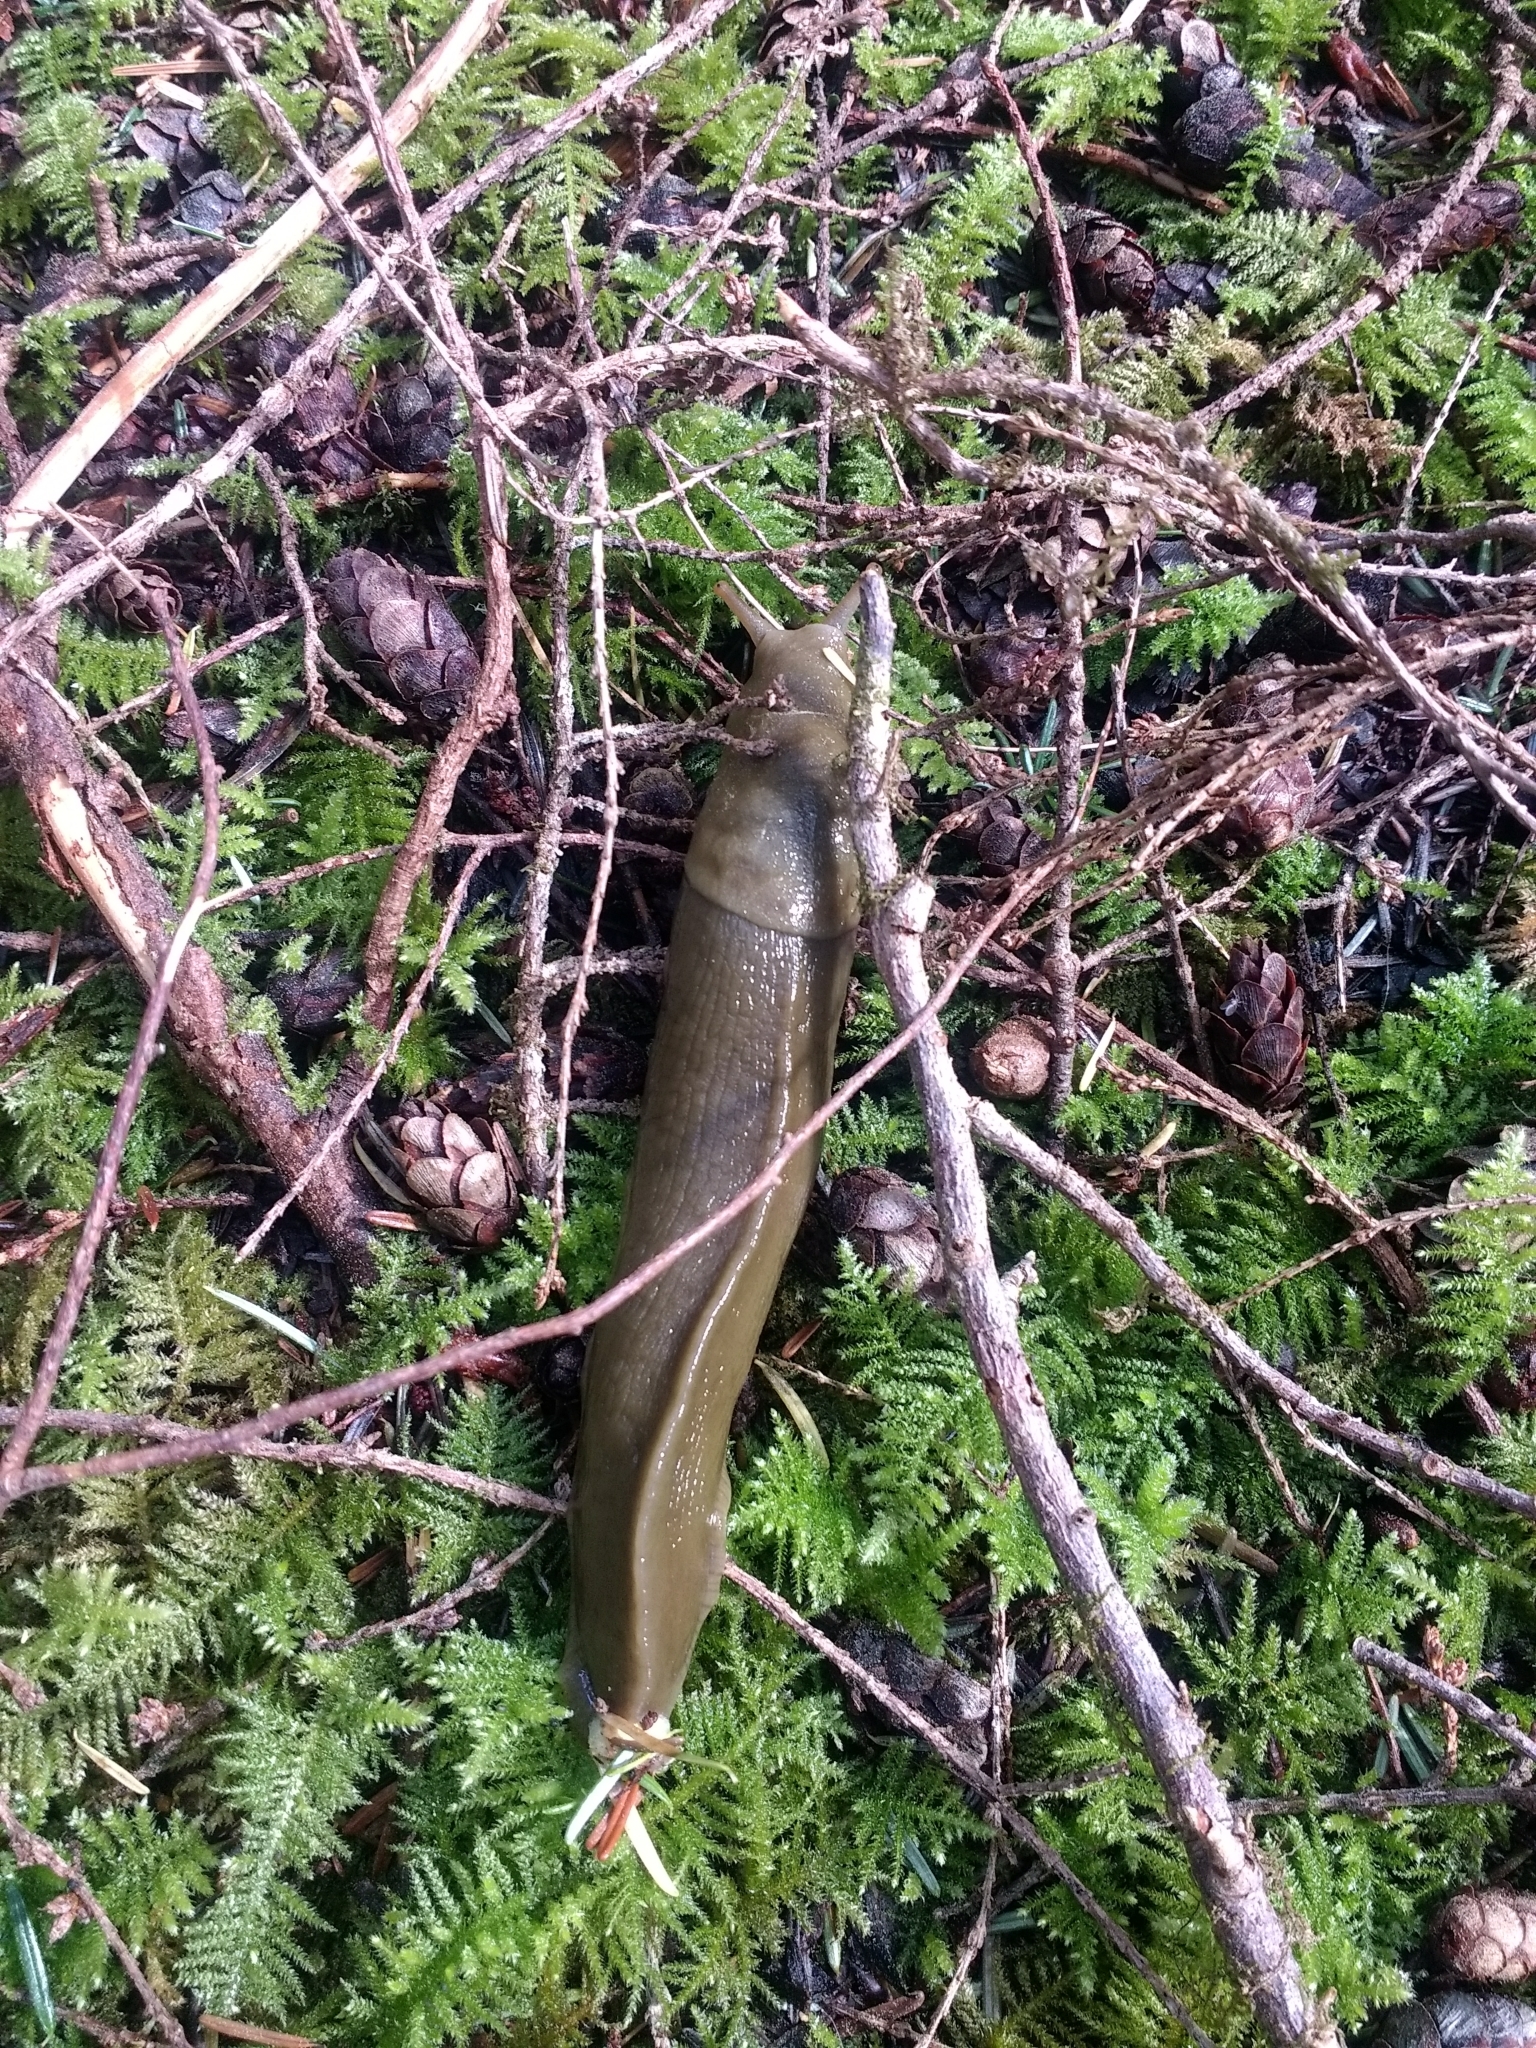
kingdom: Animalia
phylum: Mollusca
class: Gastropoda
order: Stylommatophora
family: Ariolimacidae
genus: Ariolimax
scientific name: Ariolimax columbianus
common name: Pacific banana slug
